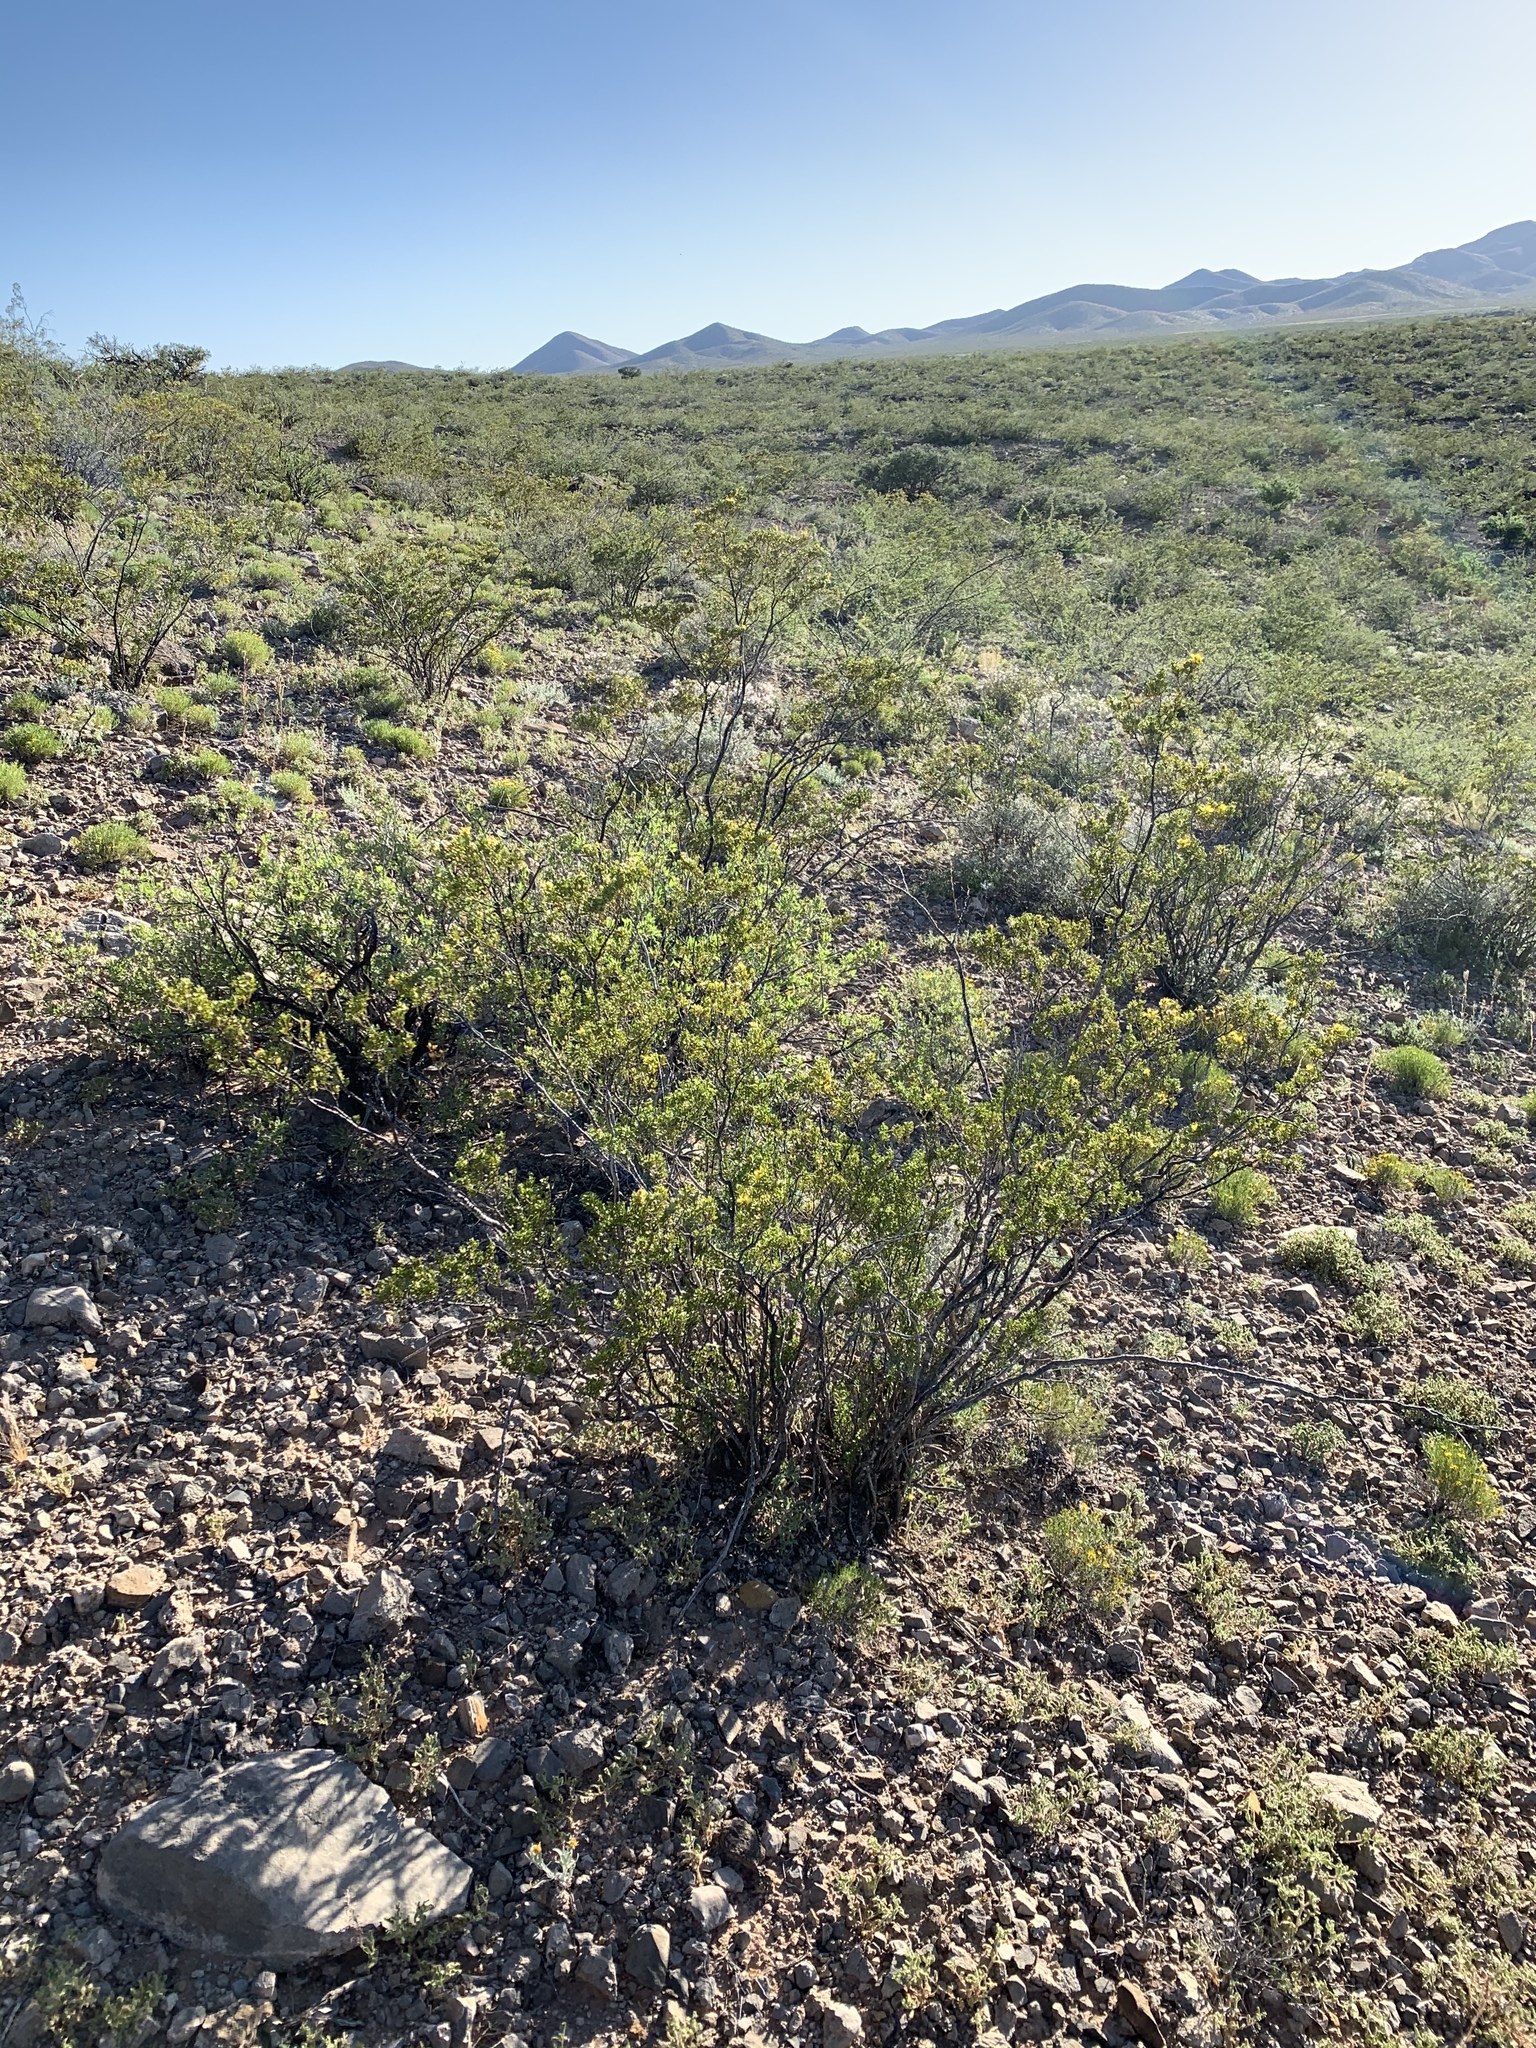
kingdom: Plantae
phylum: Tracheophyta
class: Magnoliopsida
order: Zygophyllales
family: Zygophyllaceae
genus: Larrea
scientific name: Larrea tridentata
